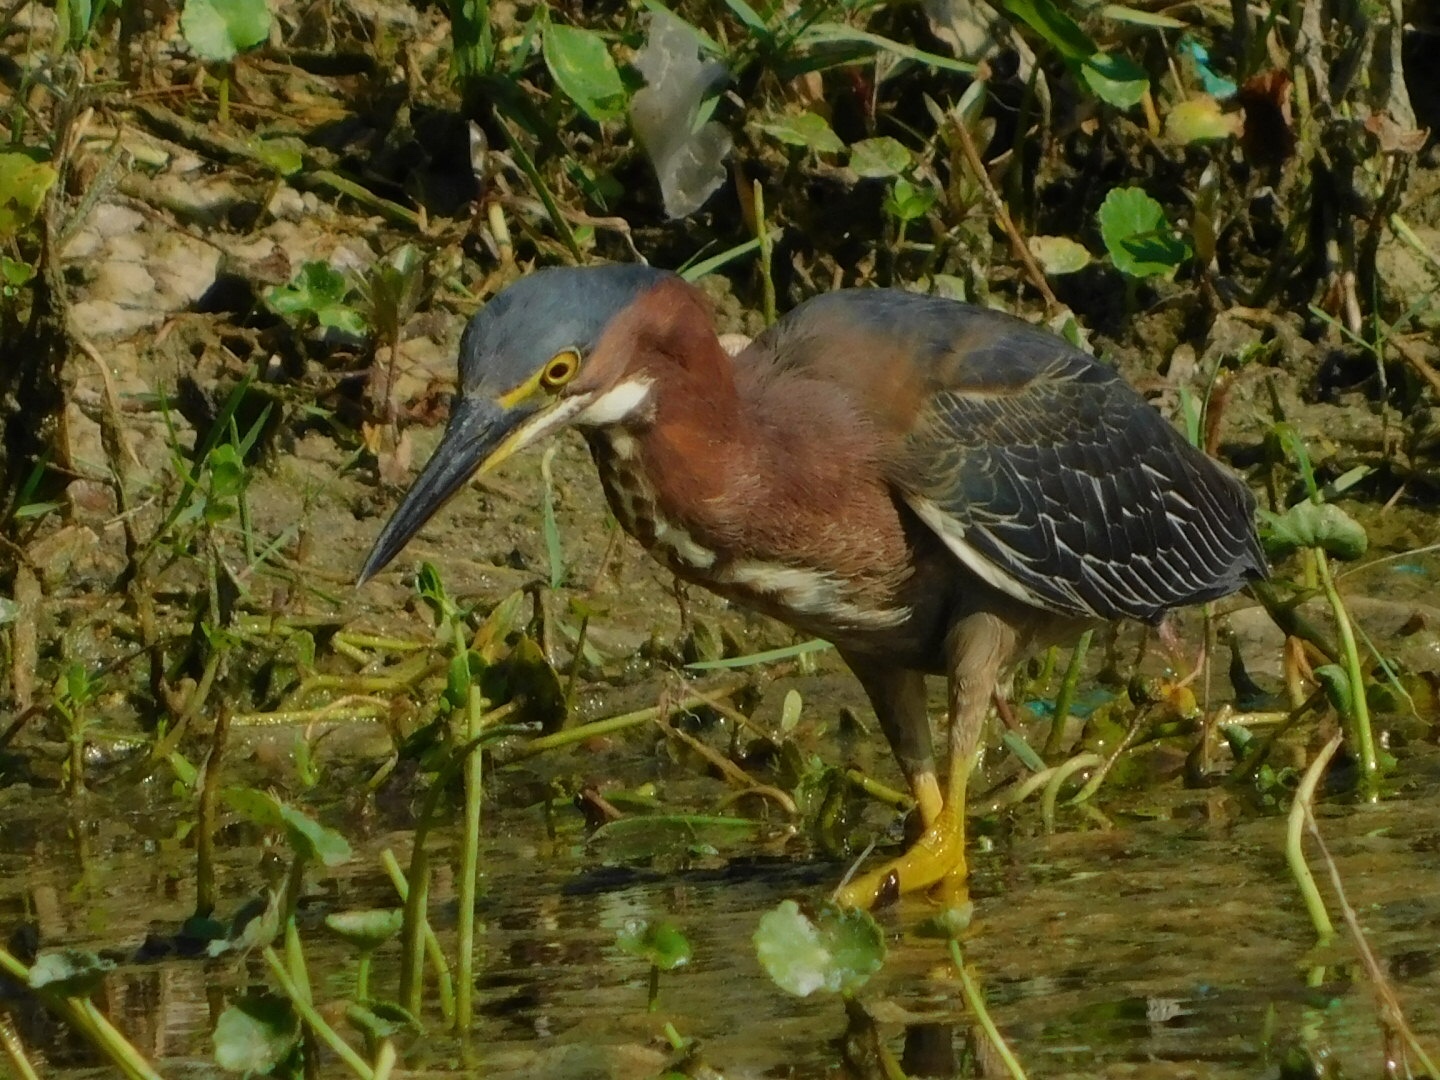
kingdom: Animalia
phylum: Chordata
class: Aves
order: Pelecaniformes
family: Ardeidae
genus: Butorides
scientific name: Butorides virescens
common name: Green heron
